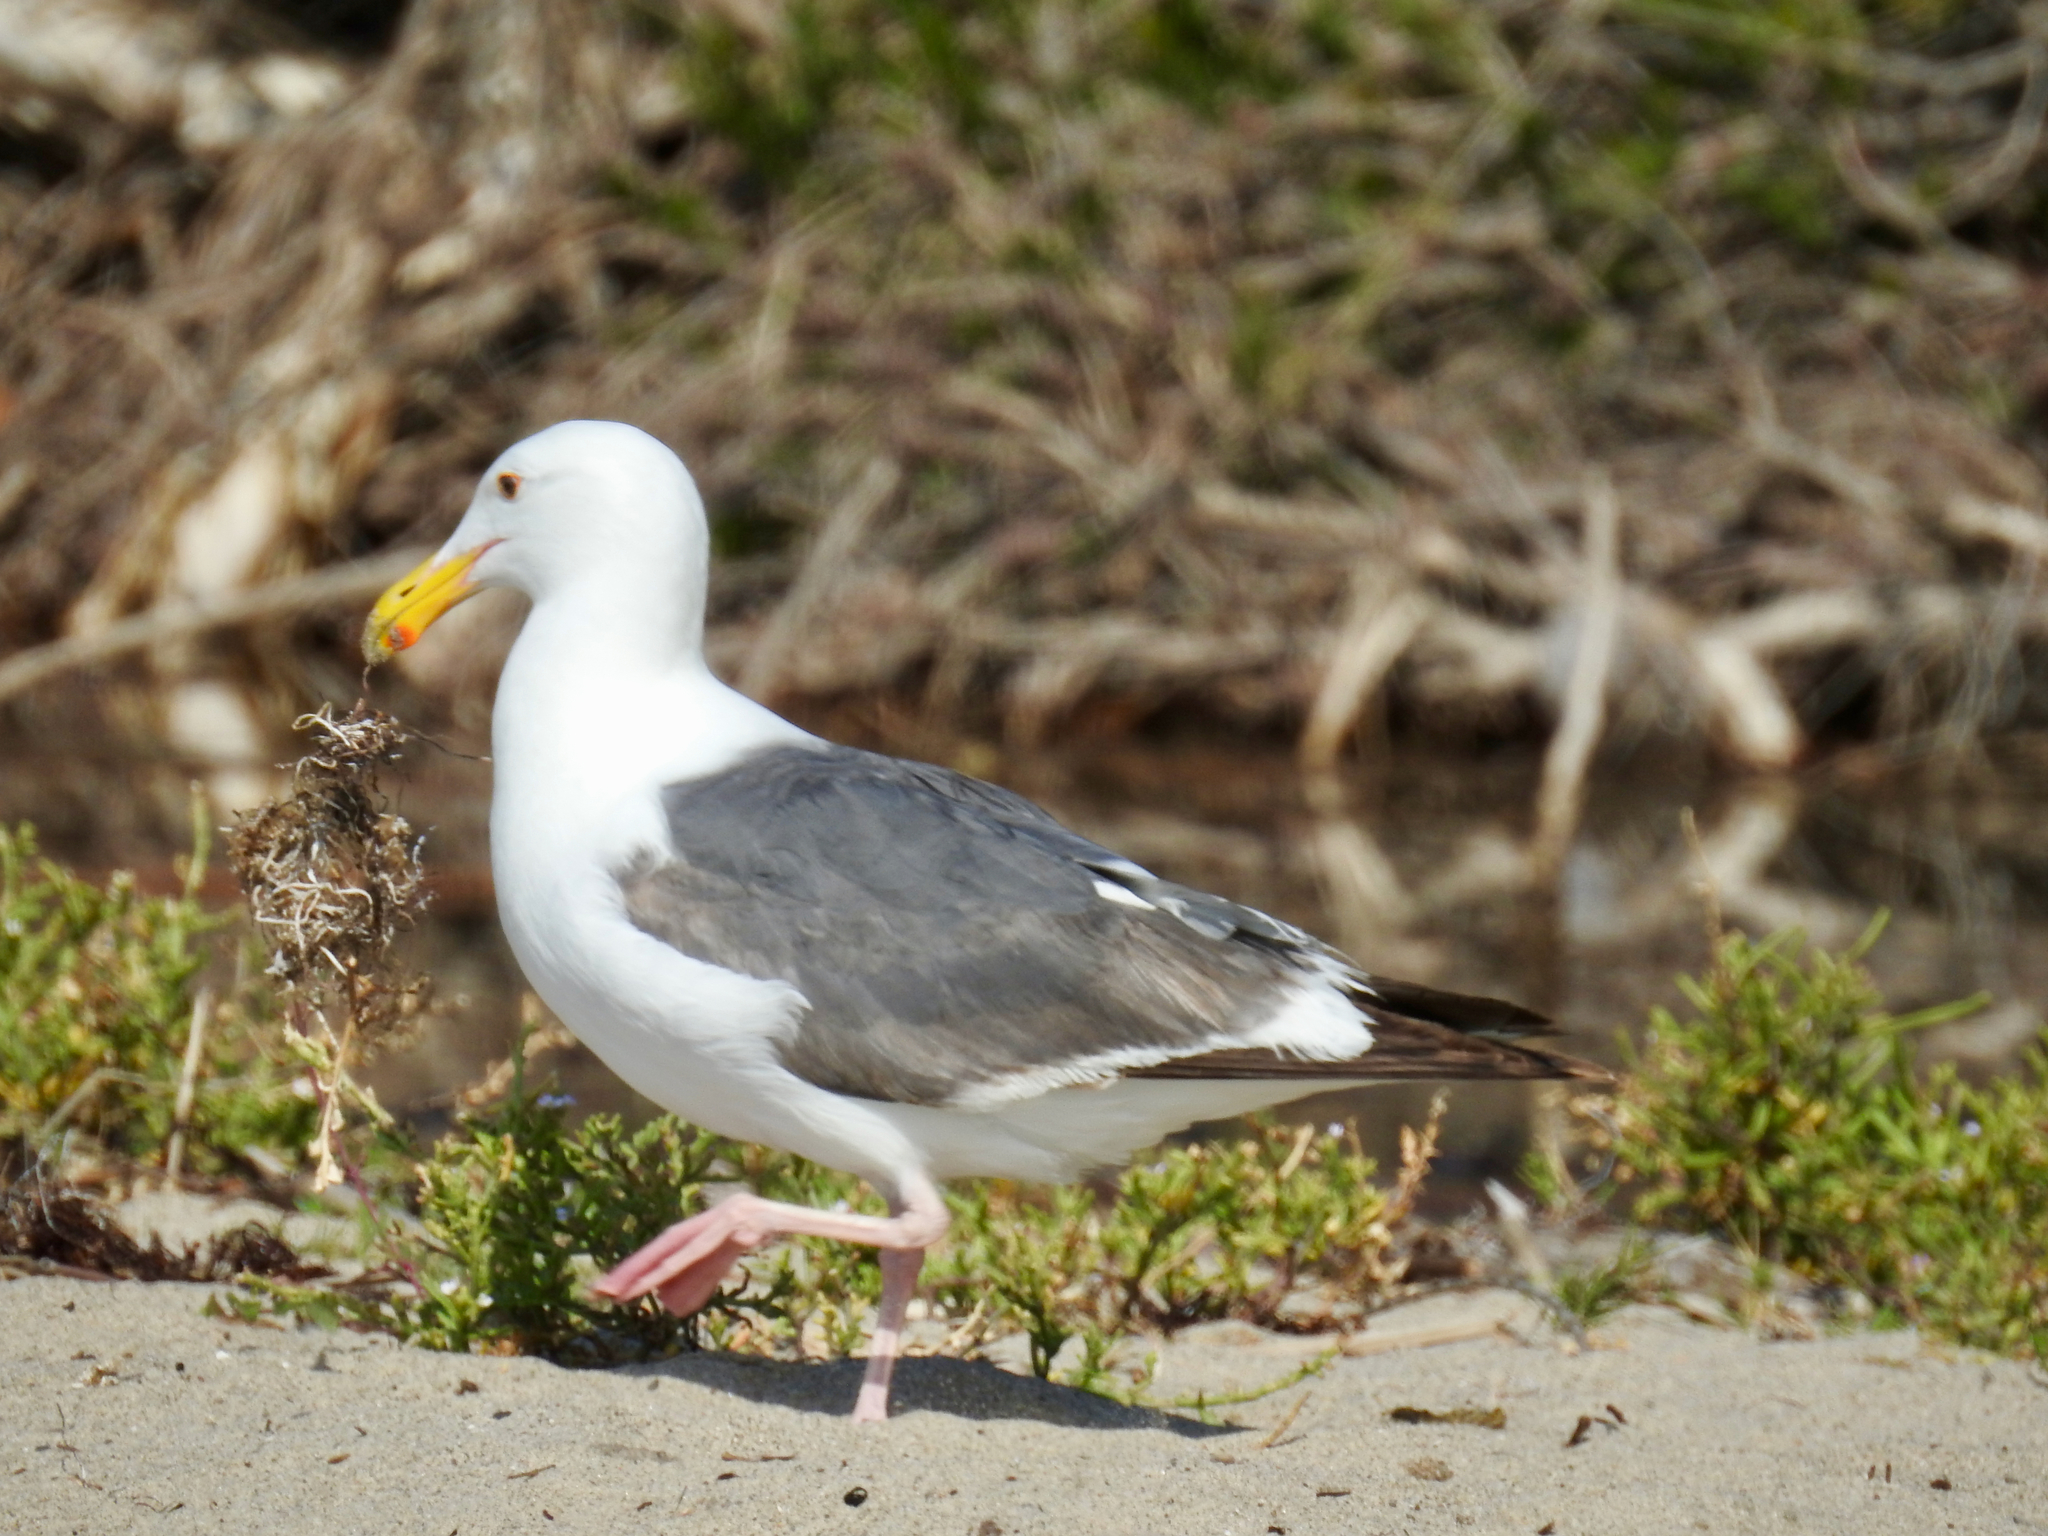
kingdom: Animalia
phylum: Chordata
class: Aves
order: Charadriiformes
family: Laridae
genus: Larus
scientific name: Larus occidentalis
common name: Western gull
